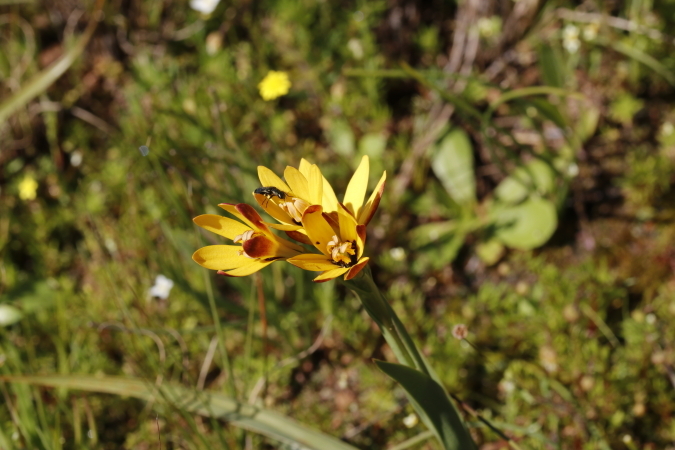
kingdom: Plantae
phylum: Tracheophyta
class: Liliopsida
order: Liliales
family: Colchicaceae
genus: Baeometra
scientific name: Baeometra uniflora
